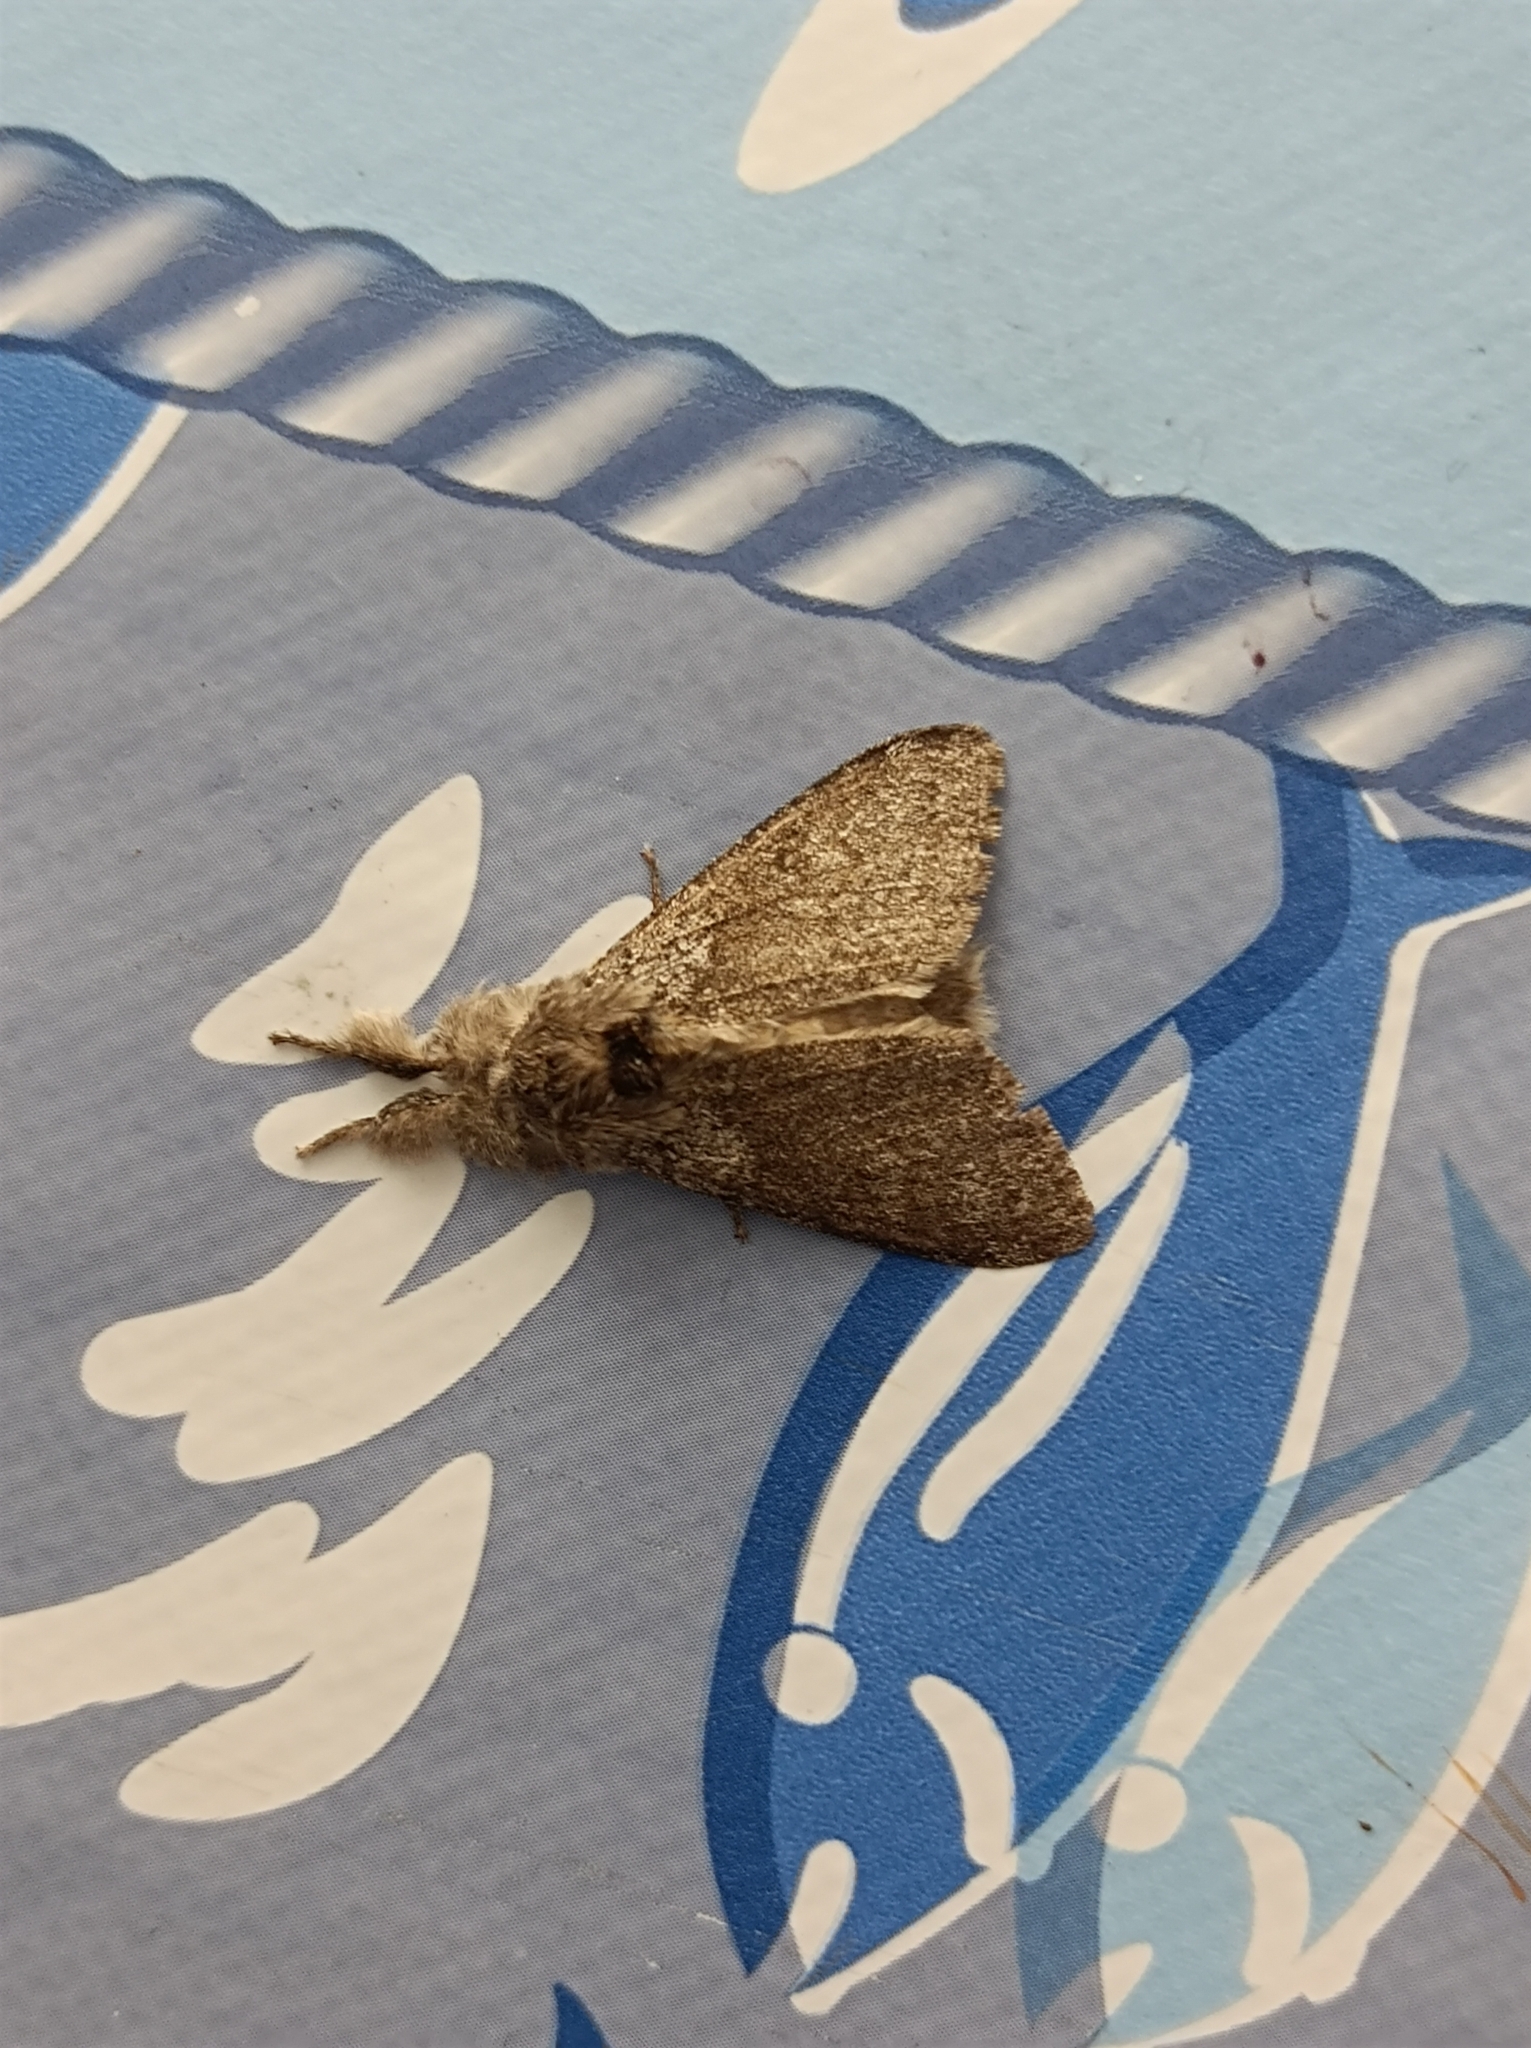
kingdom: Animalia
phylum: Arthropoda
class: Insecta
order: Lepidoptera
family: Erebidae
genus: Calliteara
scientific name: Calliteara pudibunda
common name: Pale tussock
